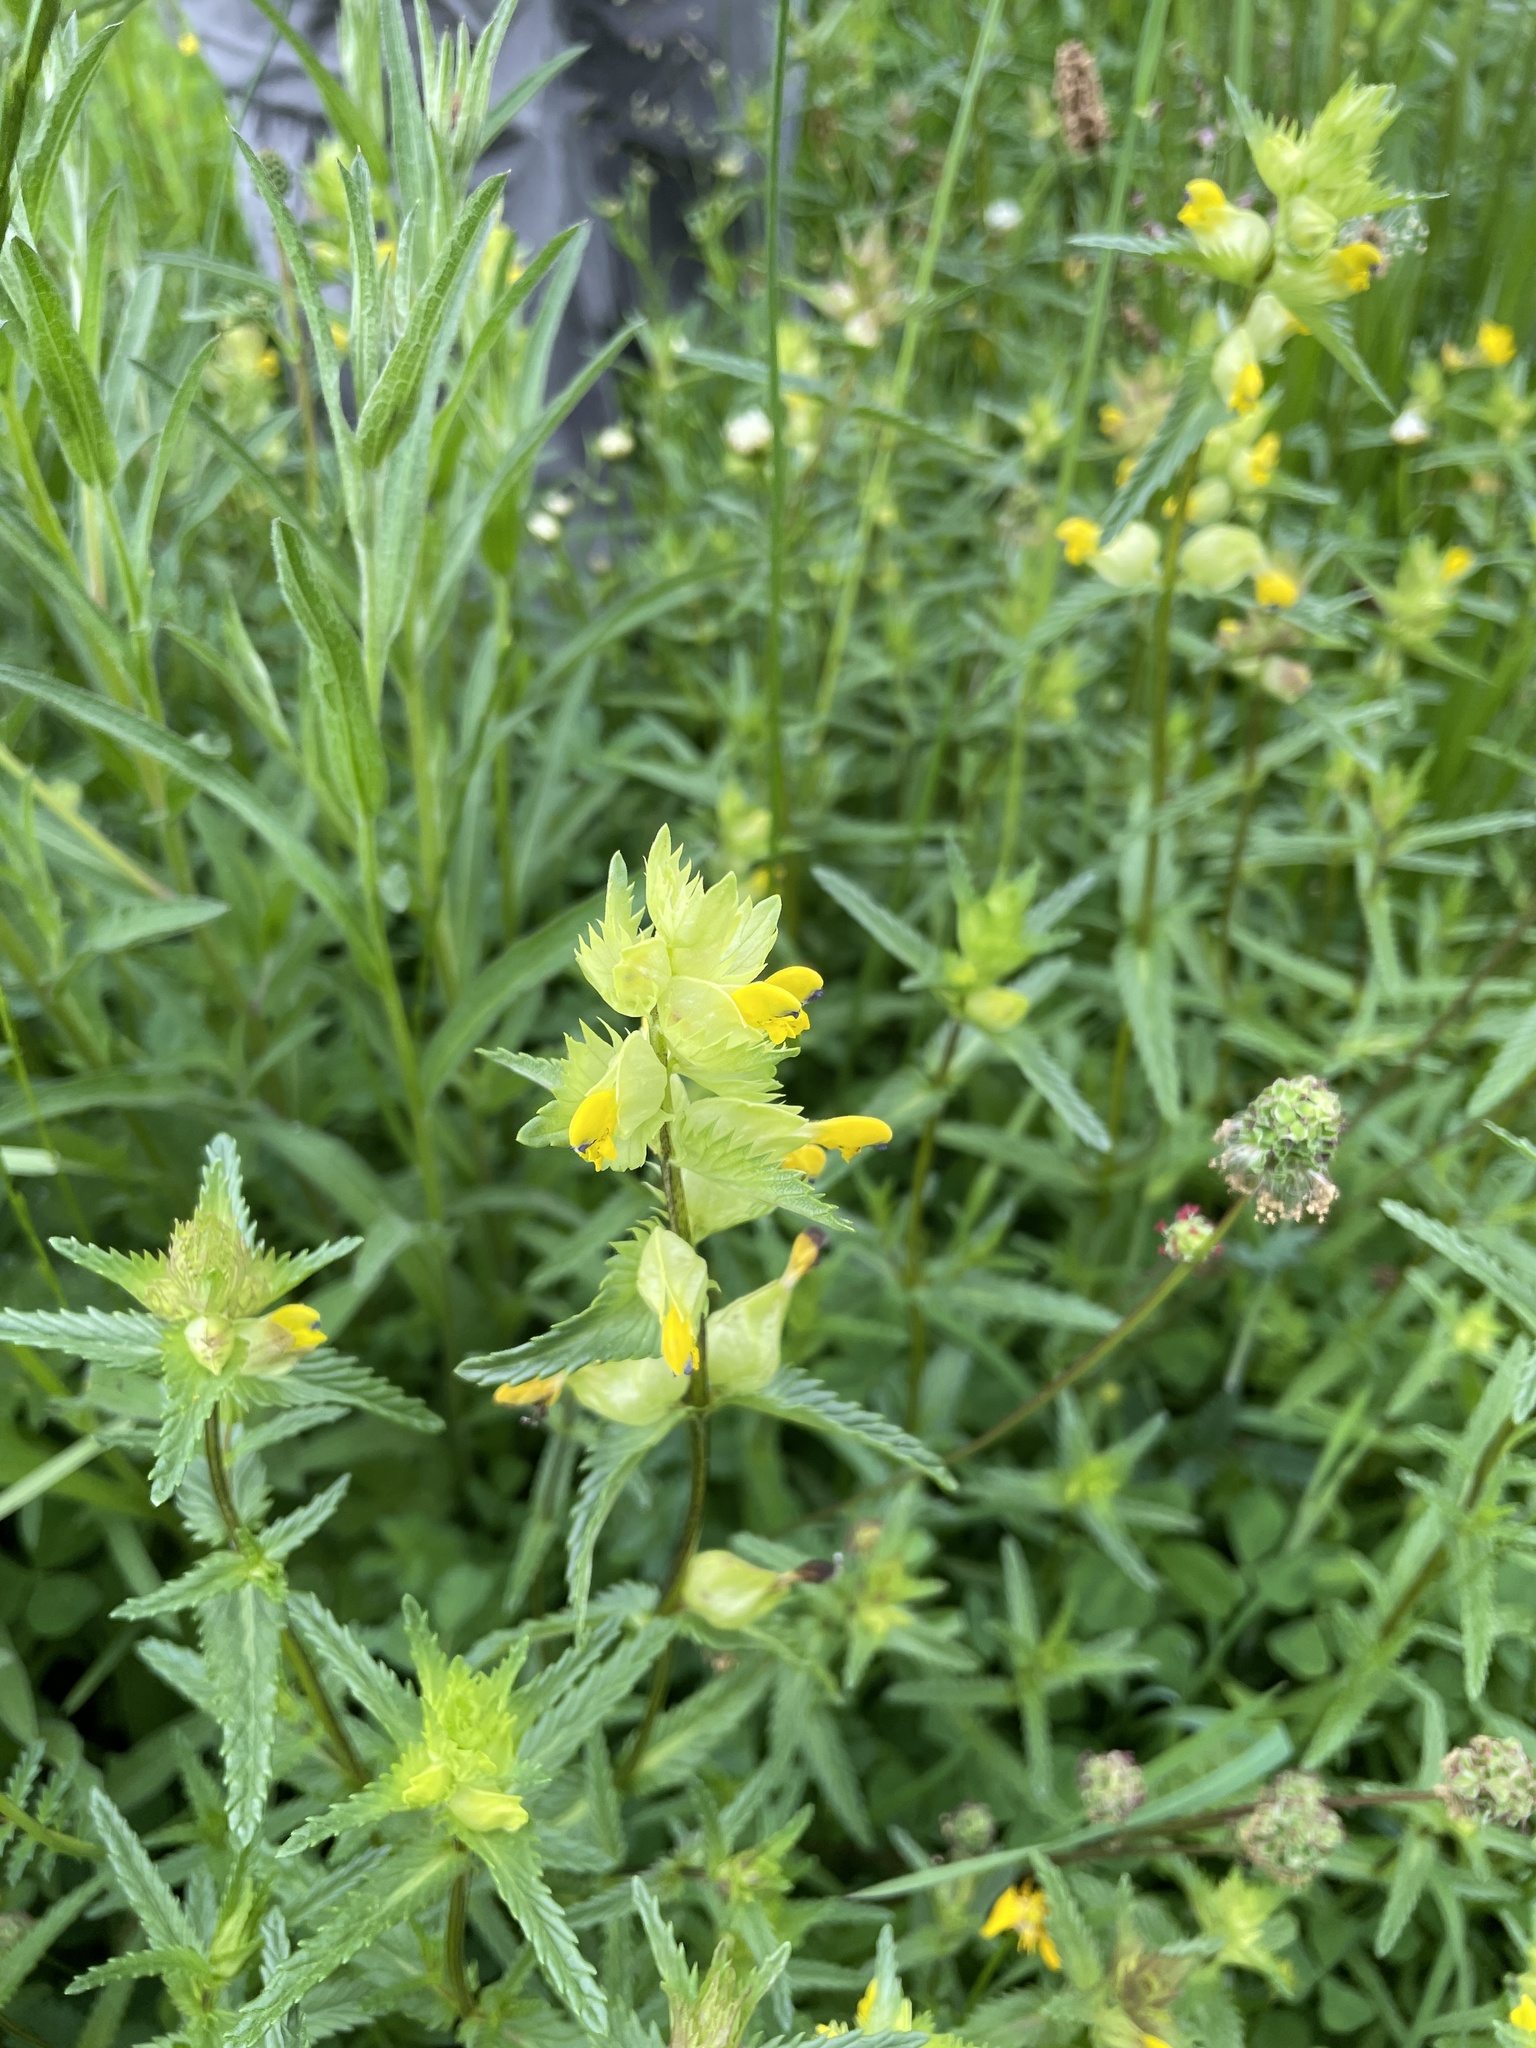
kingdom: Plantae
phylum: Tracheophyta
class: Magnoliopsida
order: Lamiales
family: Orobanchaceae
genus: Rhinanthus
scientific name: Rhinanthus minor
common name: Yellow-rattle
